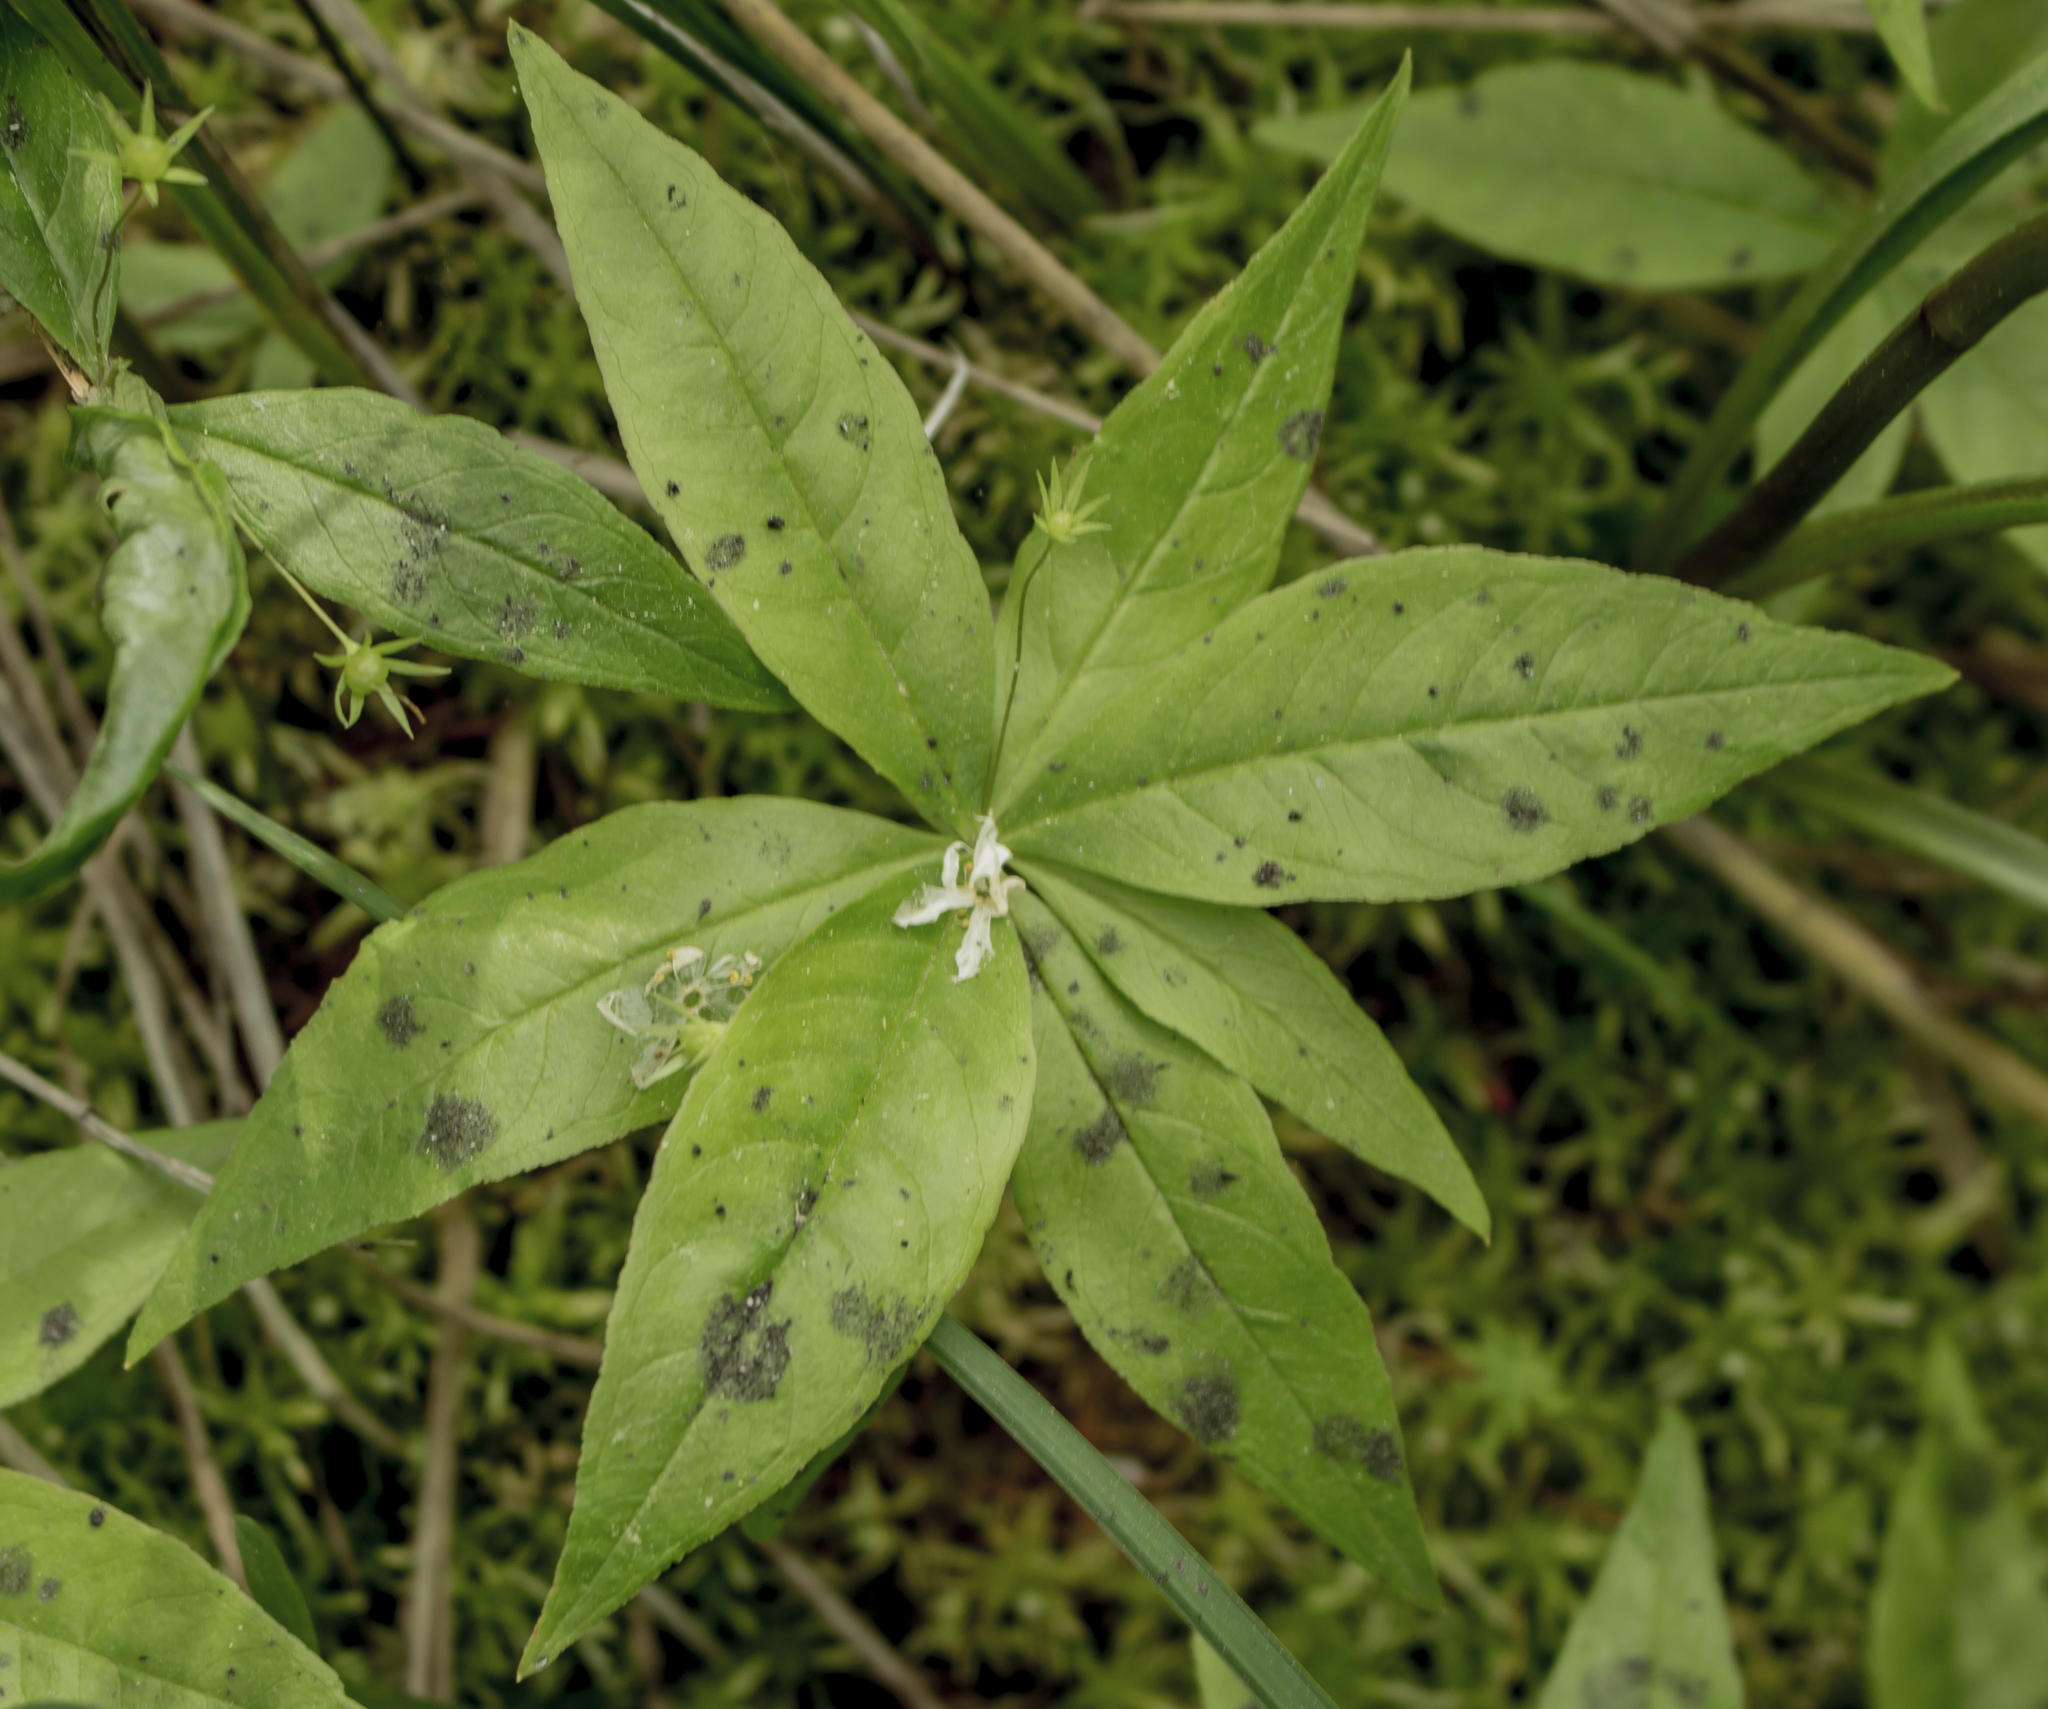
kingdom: Plantae
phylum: Tracheophyta
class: Magnoliopsida
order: Ericales
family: Primulaceae
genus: Lysimachia
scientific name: Lysimachia borealis
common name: American starflower
